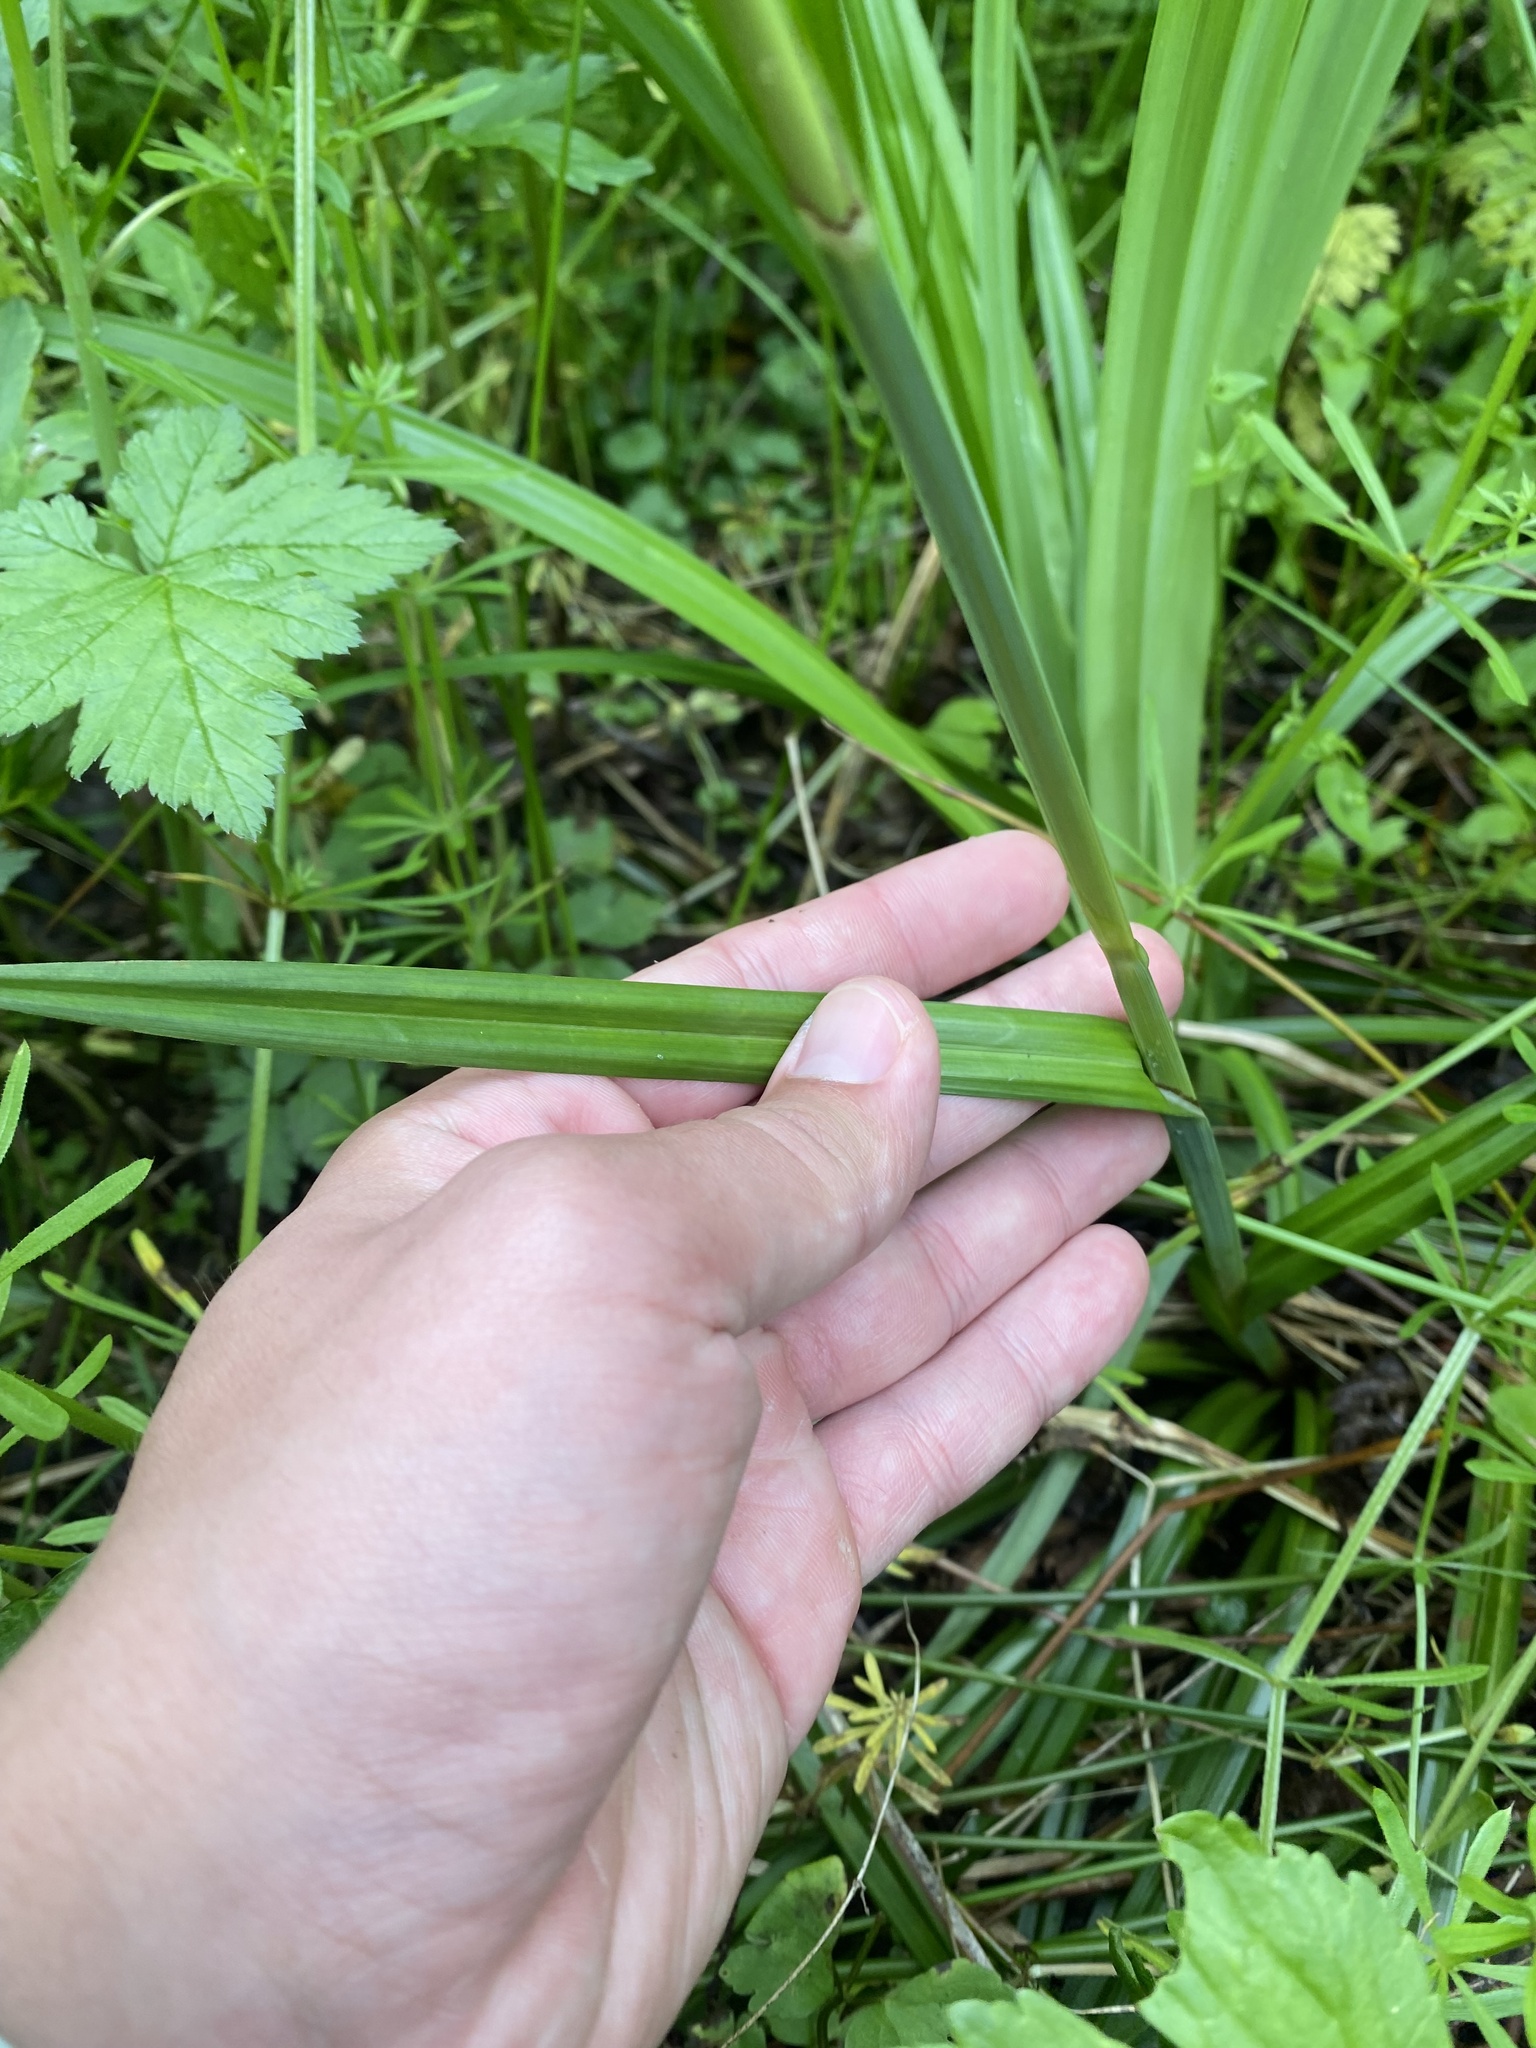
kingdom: Plantae
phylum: Tracheophyta
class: Liliopsida
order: Poales
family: Cyperaceae
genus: Carex
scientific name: Carex pendula
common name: Pendulous sedge
